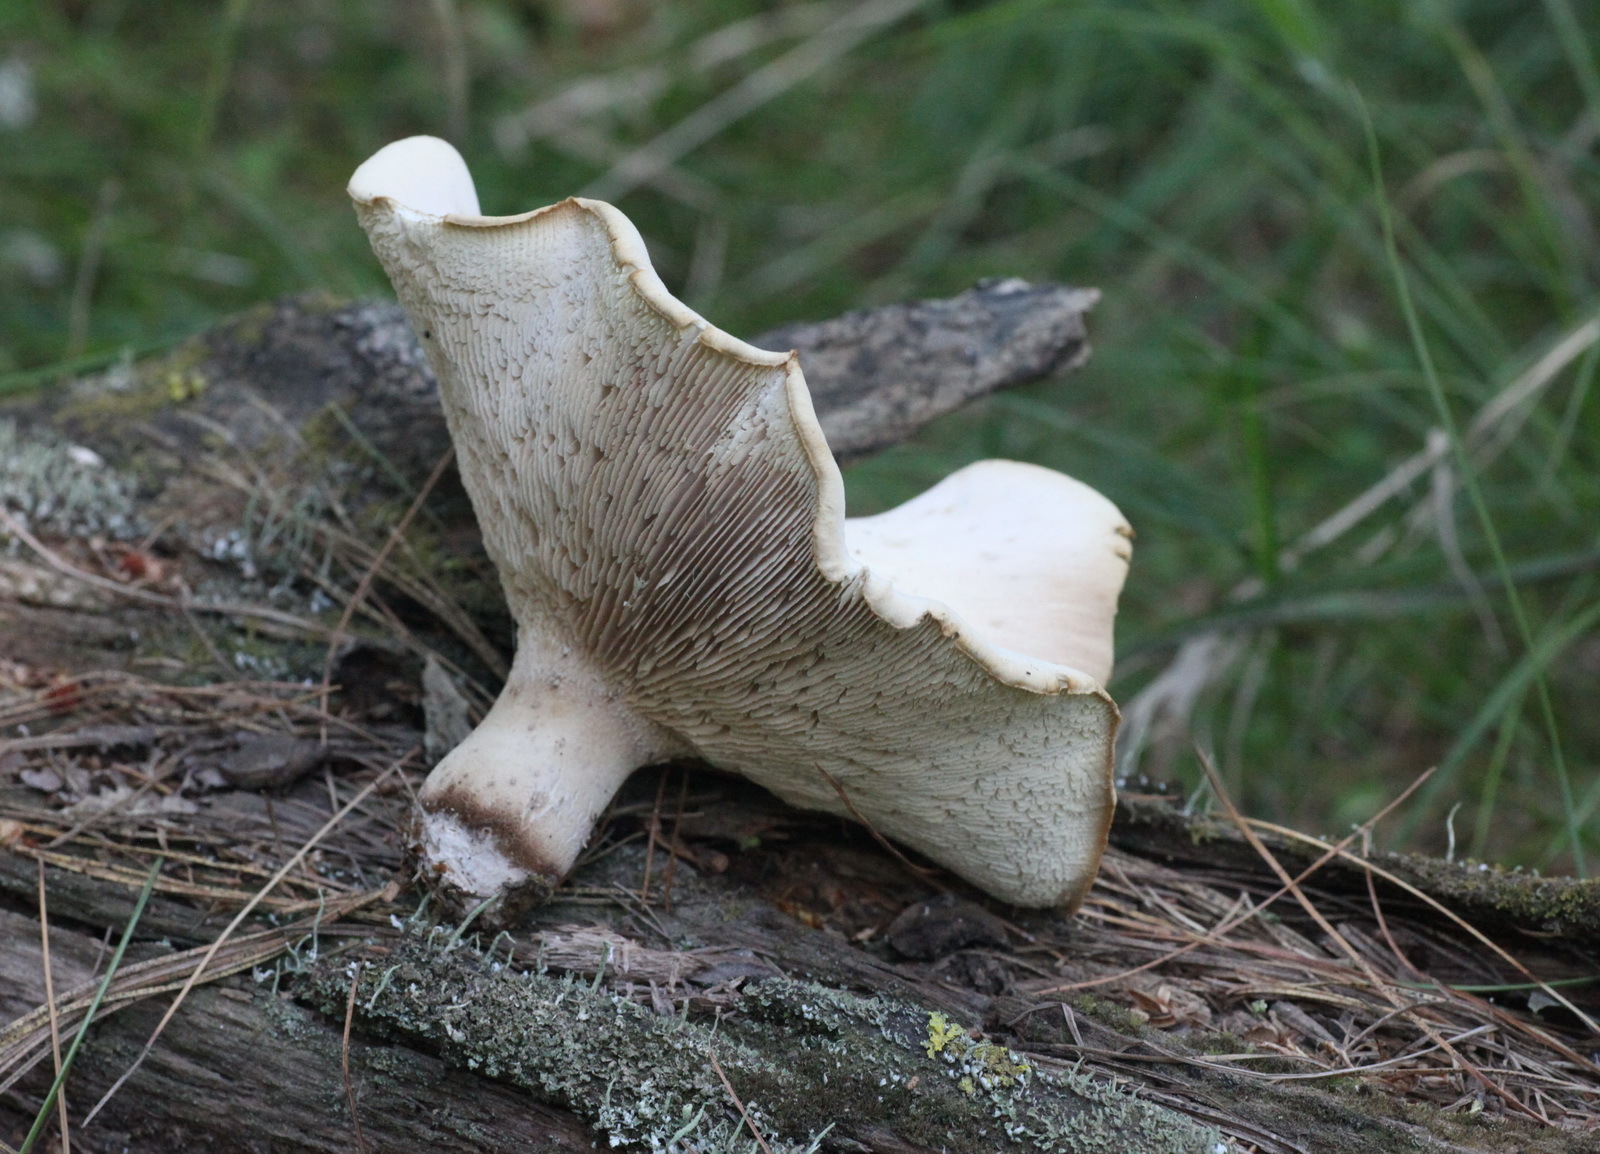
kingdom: Fungi
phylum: Basidiomycota
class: Agaricomycetes
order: Gloeophyllales
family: Gloeophyllaceae
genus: Neolentinus
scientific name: Neolentinus cyathiformis
